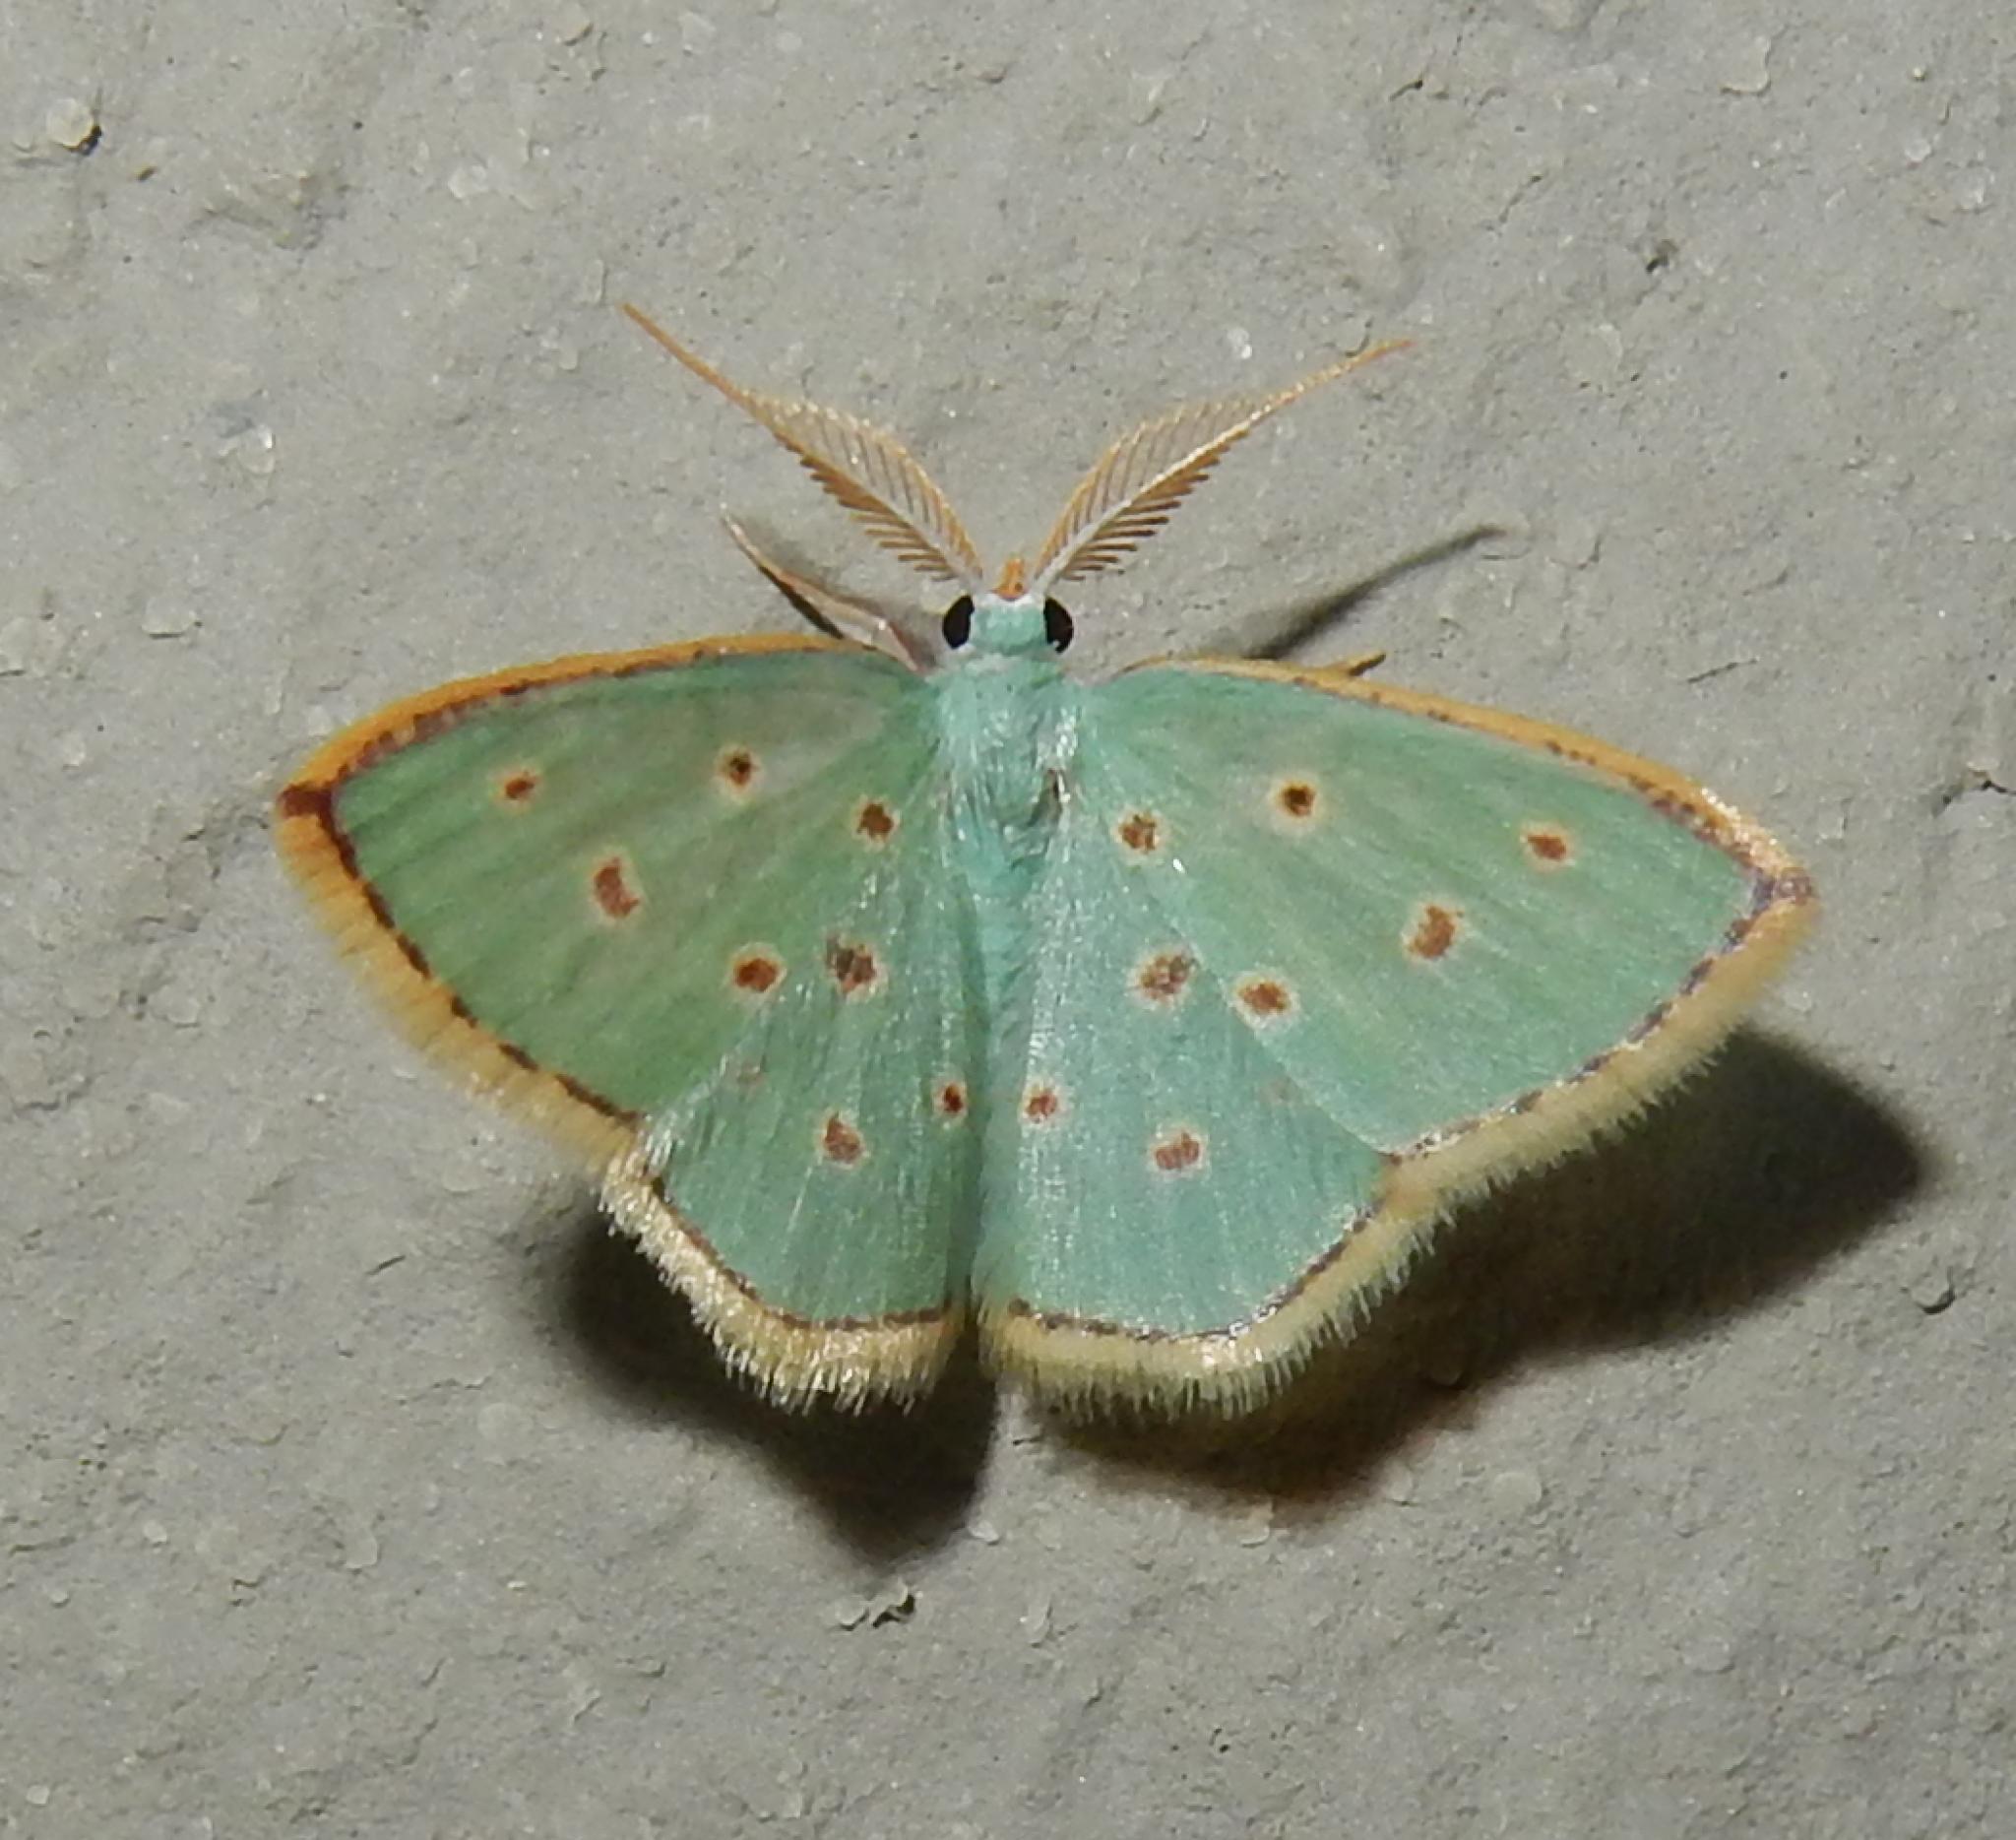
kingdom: Animalia
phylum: Arthropoda
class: Insecta
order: Lepidoptera
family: Geometridae
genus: Comostolopsis
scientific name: Comostolopsis stillata
